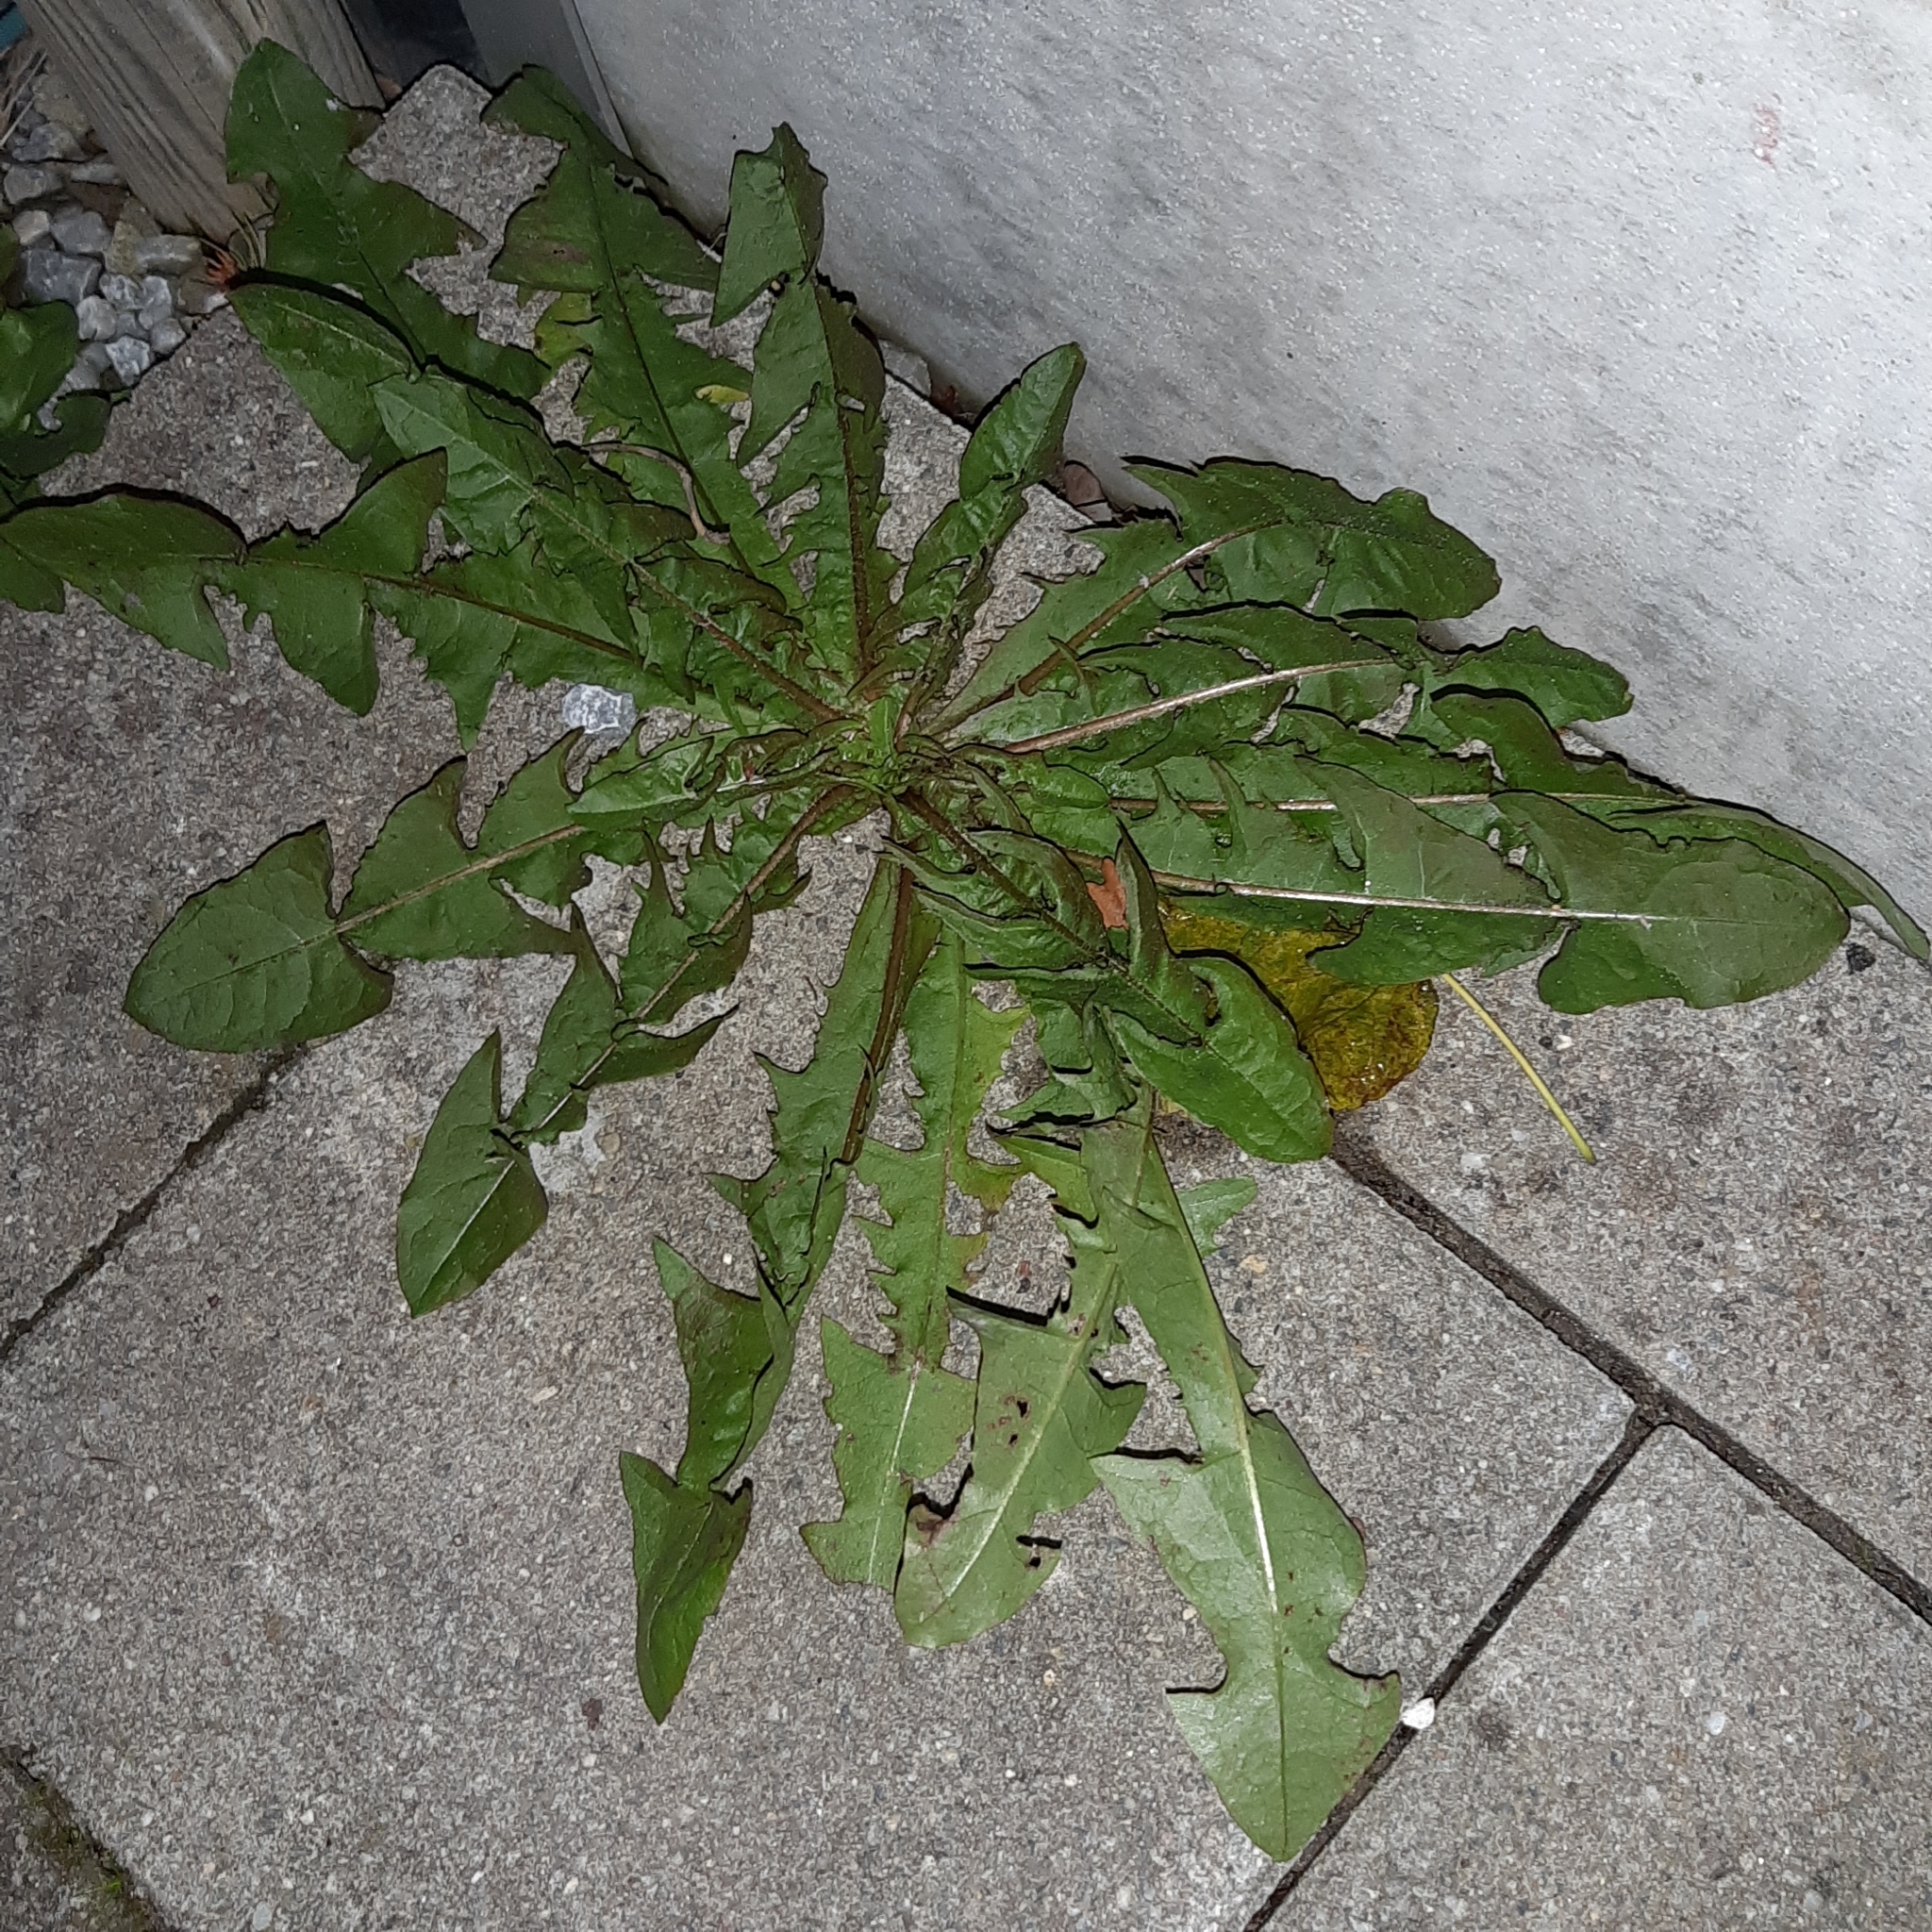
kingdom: Plantae
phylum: Tracheophyta
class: Magnoliopsida
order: Asterales
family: Asteraceae
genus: Taraxacum
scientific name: Taraxacum officinale
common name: Common dandelion
